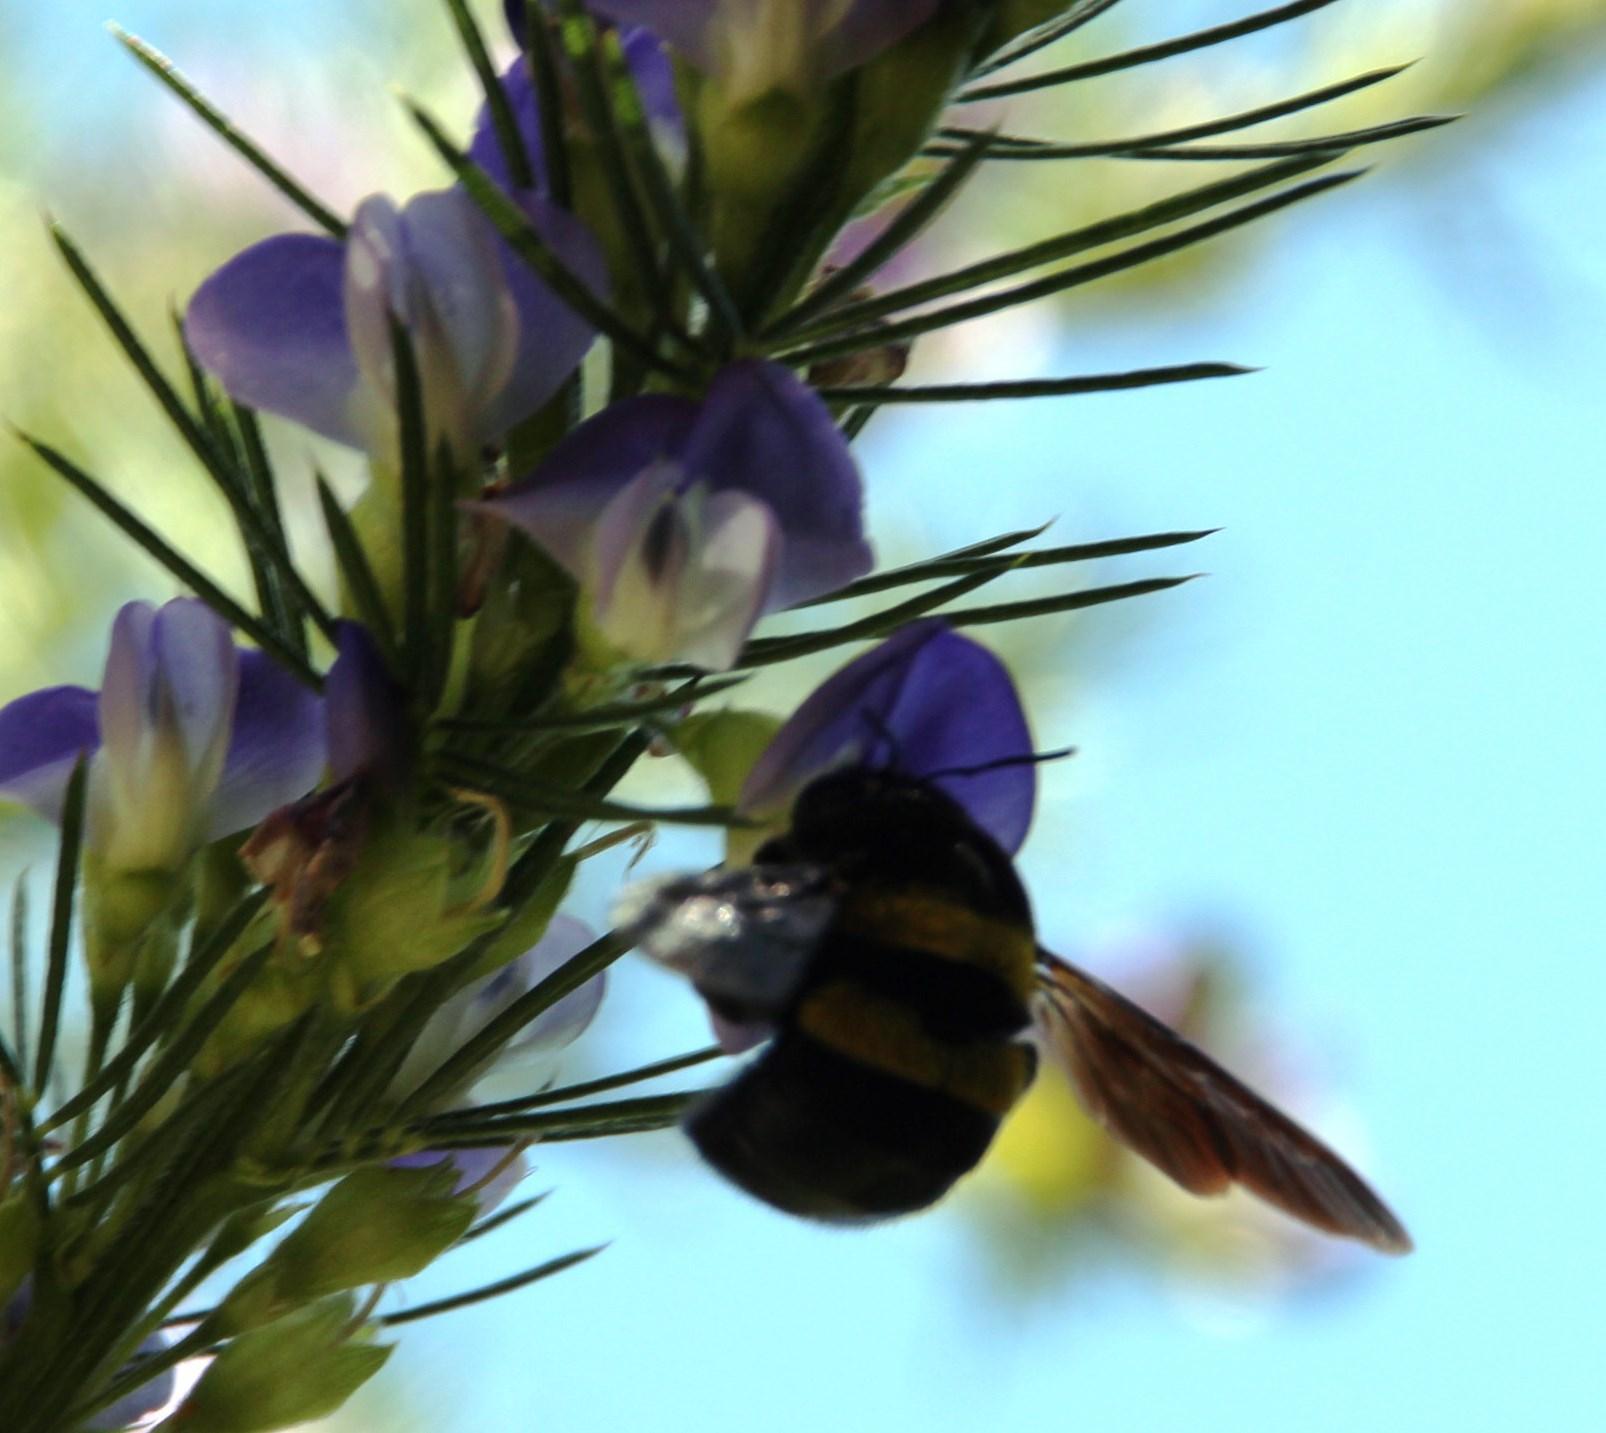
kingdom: Animalia
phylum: Arthropoda
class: Insecta
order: Hymenoptera
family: Apidae
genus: Xylocopa
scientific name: Xylocopa caffra
